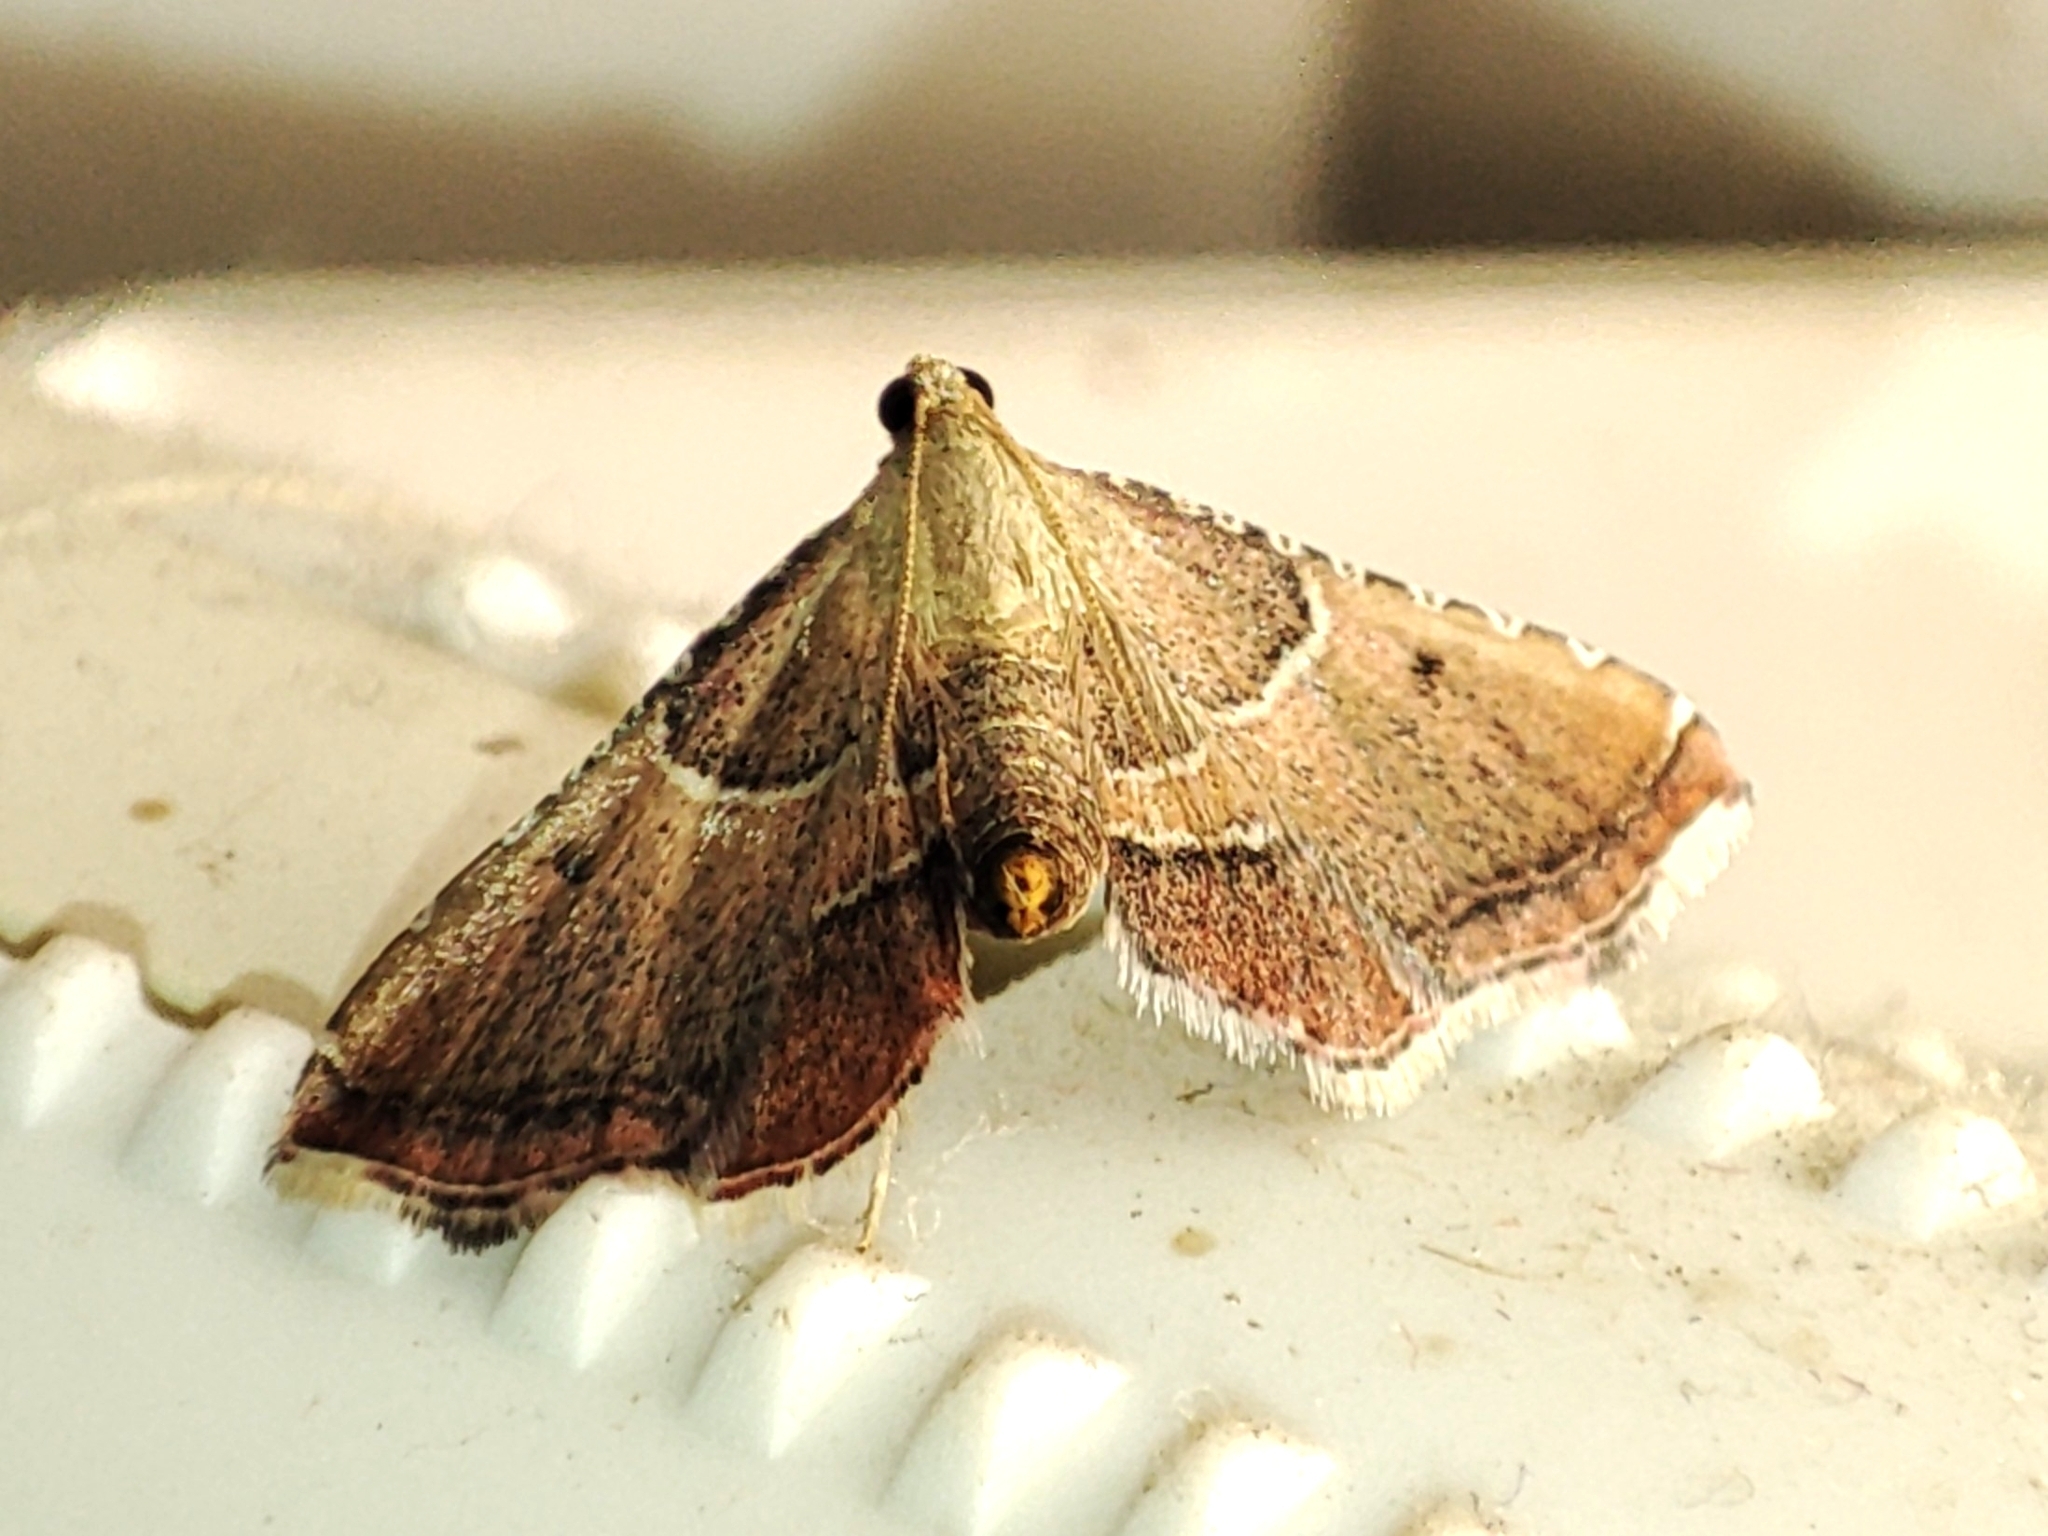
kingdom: Animalia
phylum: Arthropoda
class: Insecta
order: Lepidoptera
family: Pyralidae
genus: Endotricha
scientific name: Endotricha flammealis
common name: Rosy tabby
